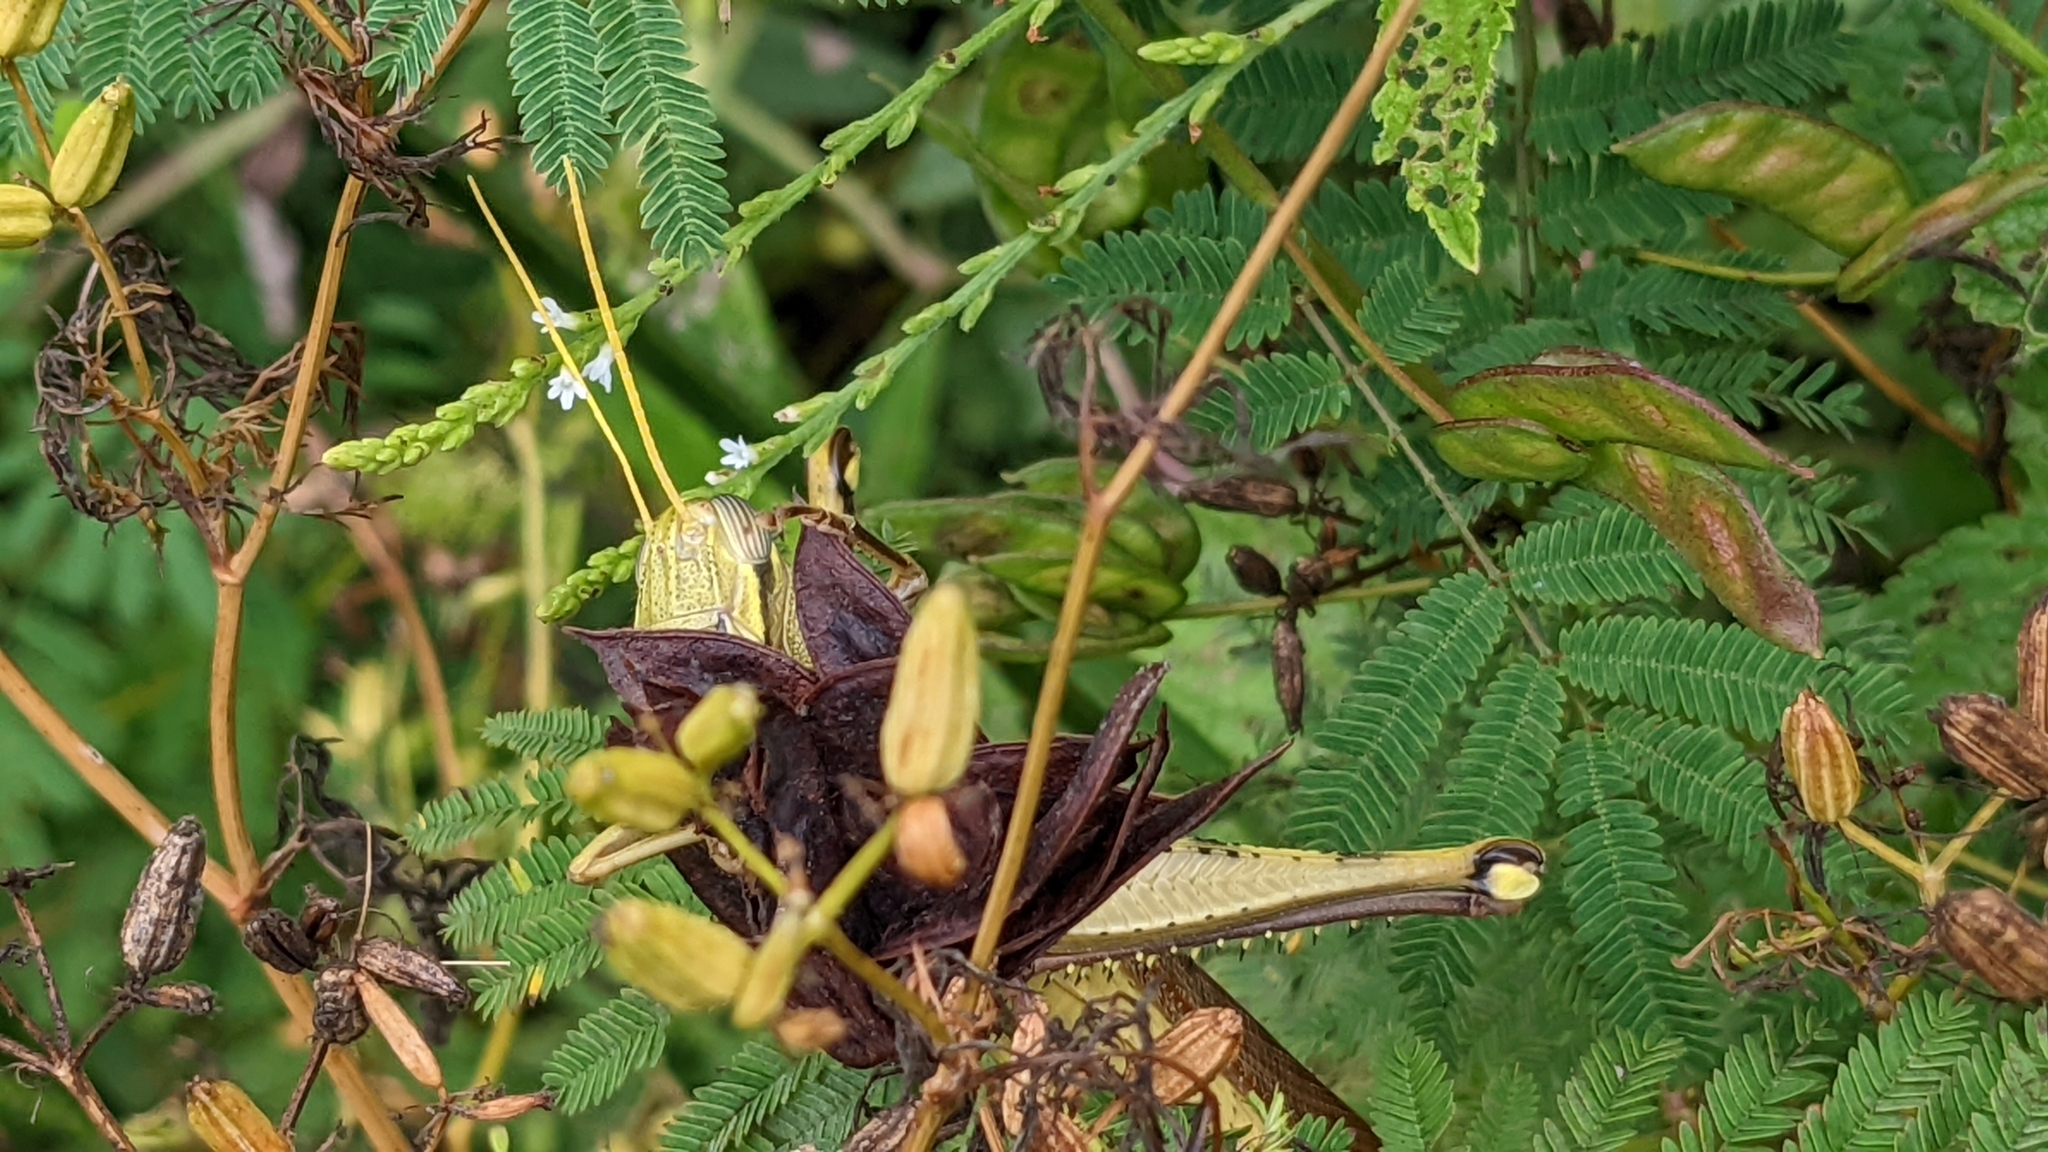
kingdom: Animalia
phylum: Arthropoda
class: Insecta
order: Orthoptera
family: Acrididae
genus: Schistocerca
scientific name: Schistocerca obscura
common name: Obscure bird grasshopper
